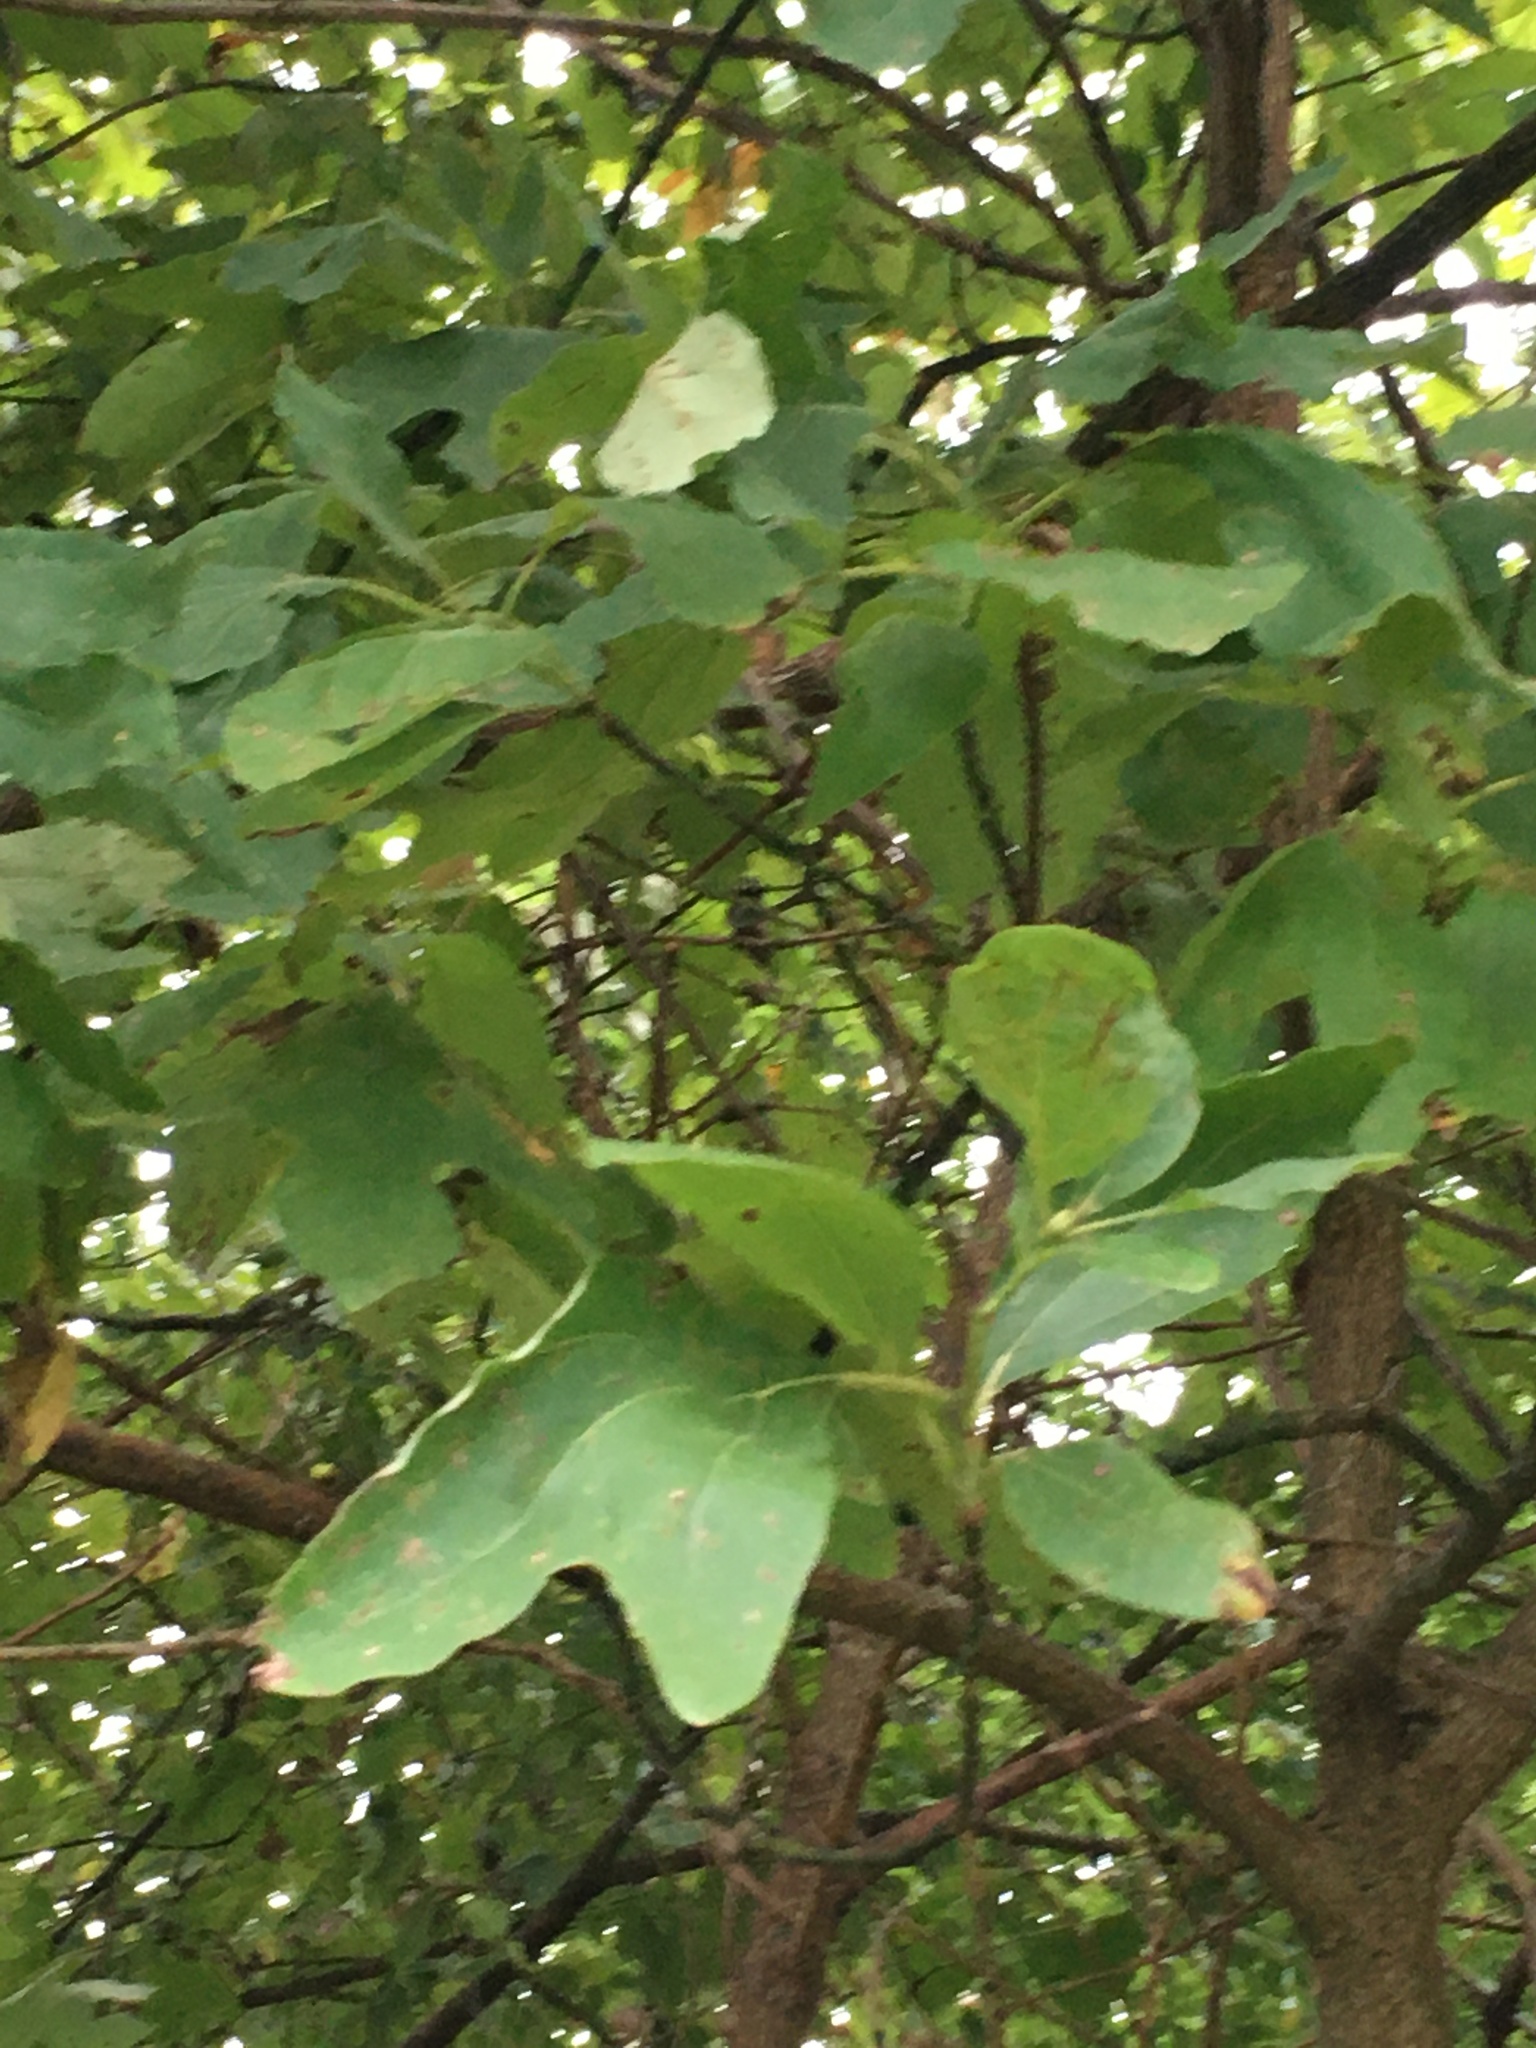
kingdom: Plantae
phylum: Tracheophyta
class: Magnoliopsida
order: Laurales
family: Lauraceae
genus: Sassafras
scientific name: Sassafras albidum
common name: Sassafras
